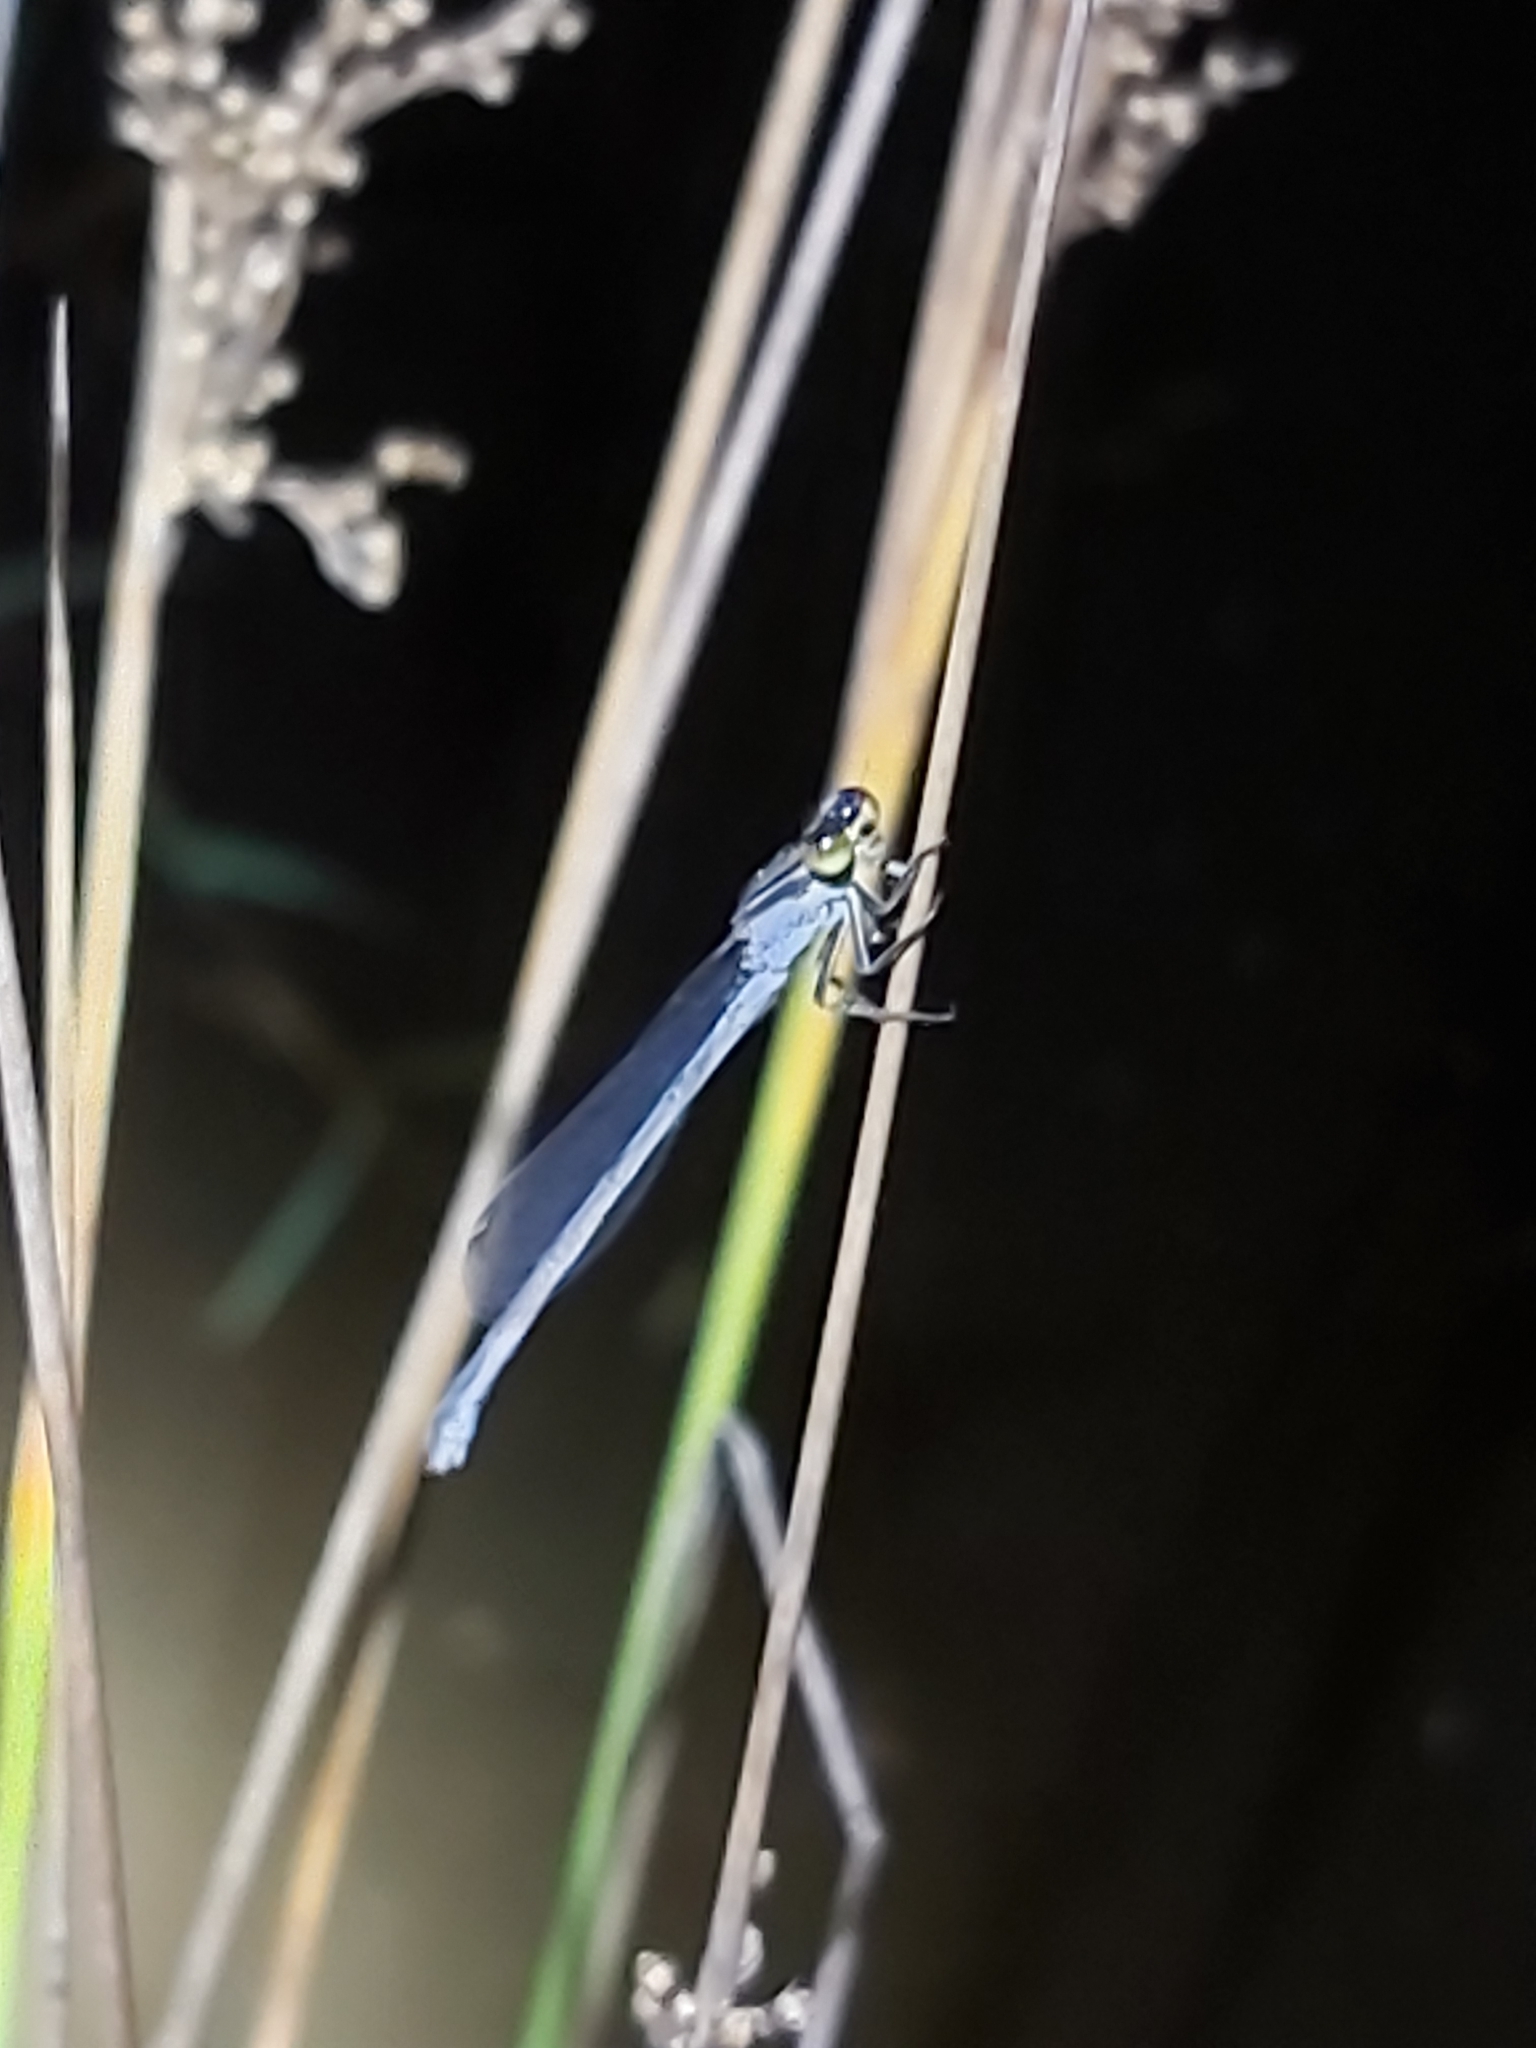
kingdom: Animalia
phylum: Arthropoda
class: Insecta
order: Odonata
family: Coenagrionidae
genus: Ischnura
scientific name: Ischnura heterosticta
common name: Common bluetail
